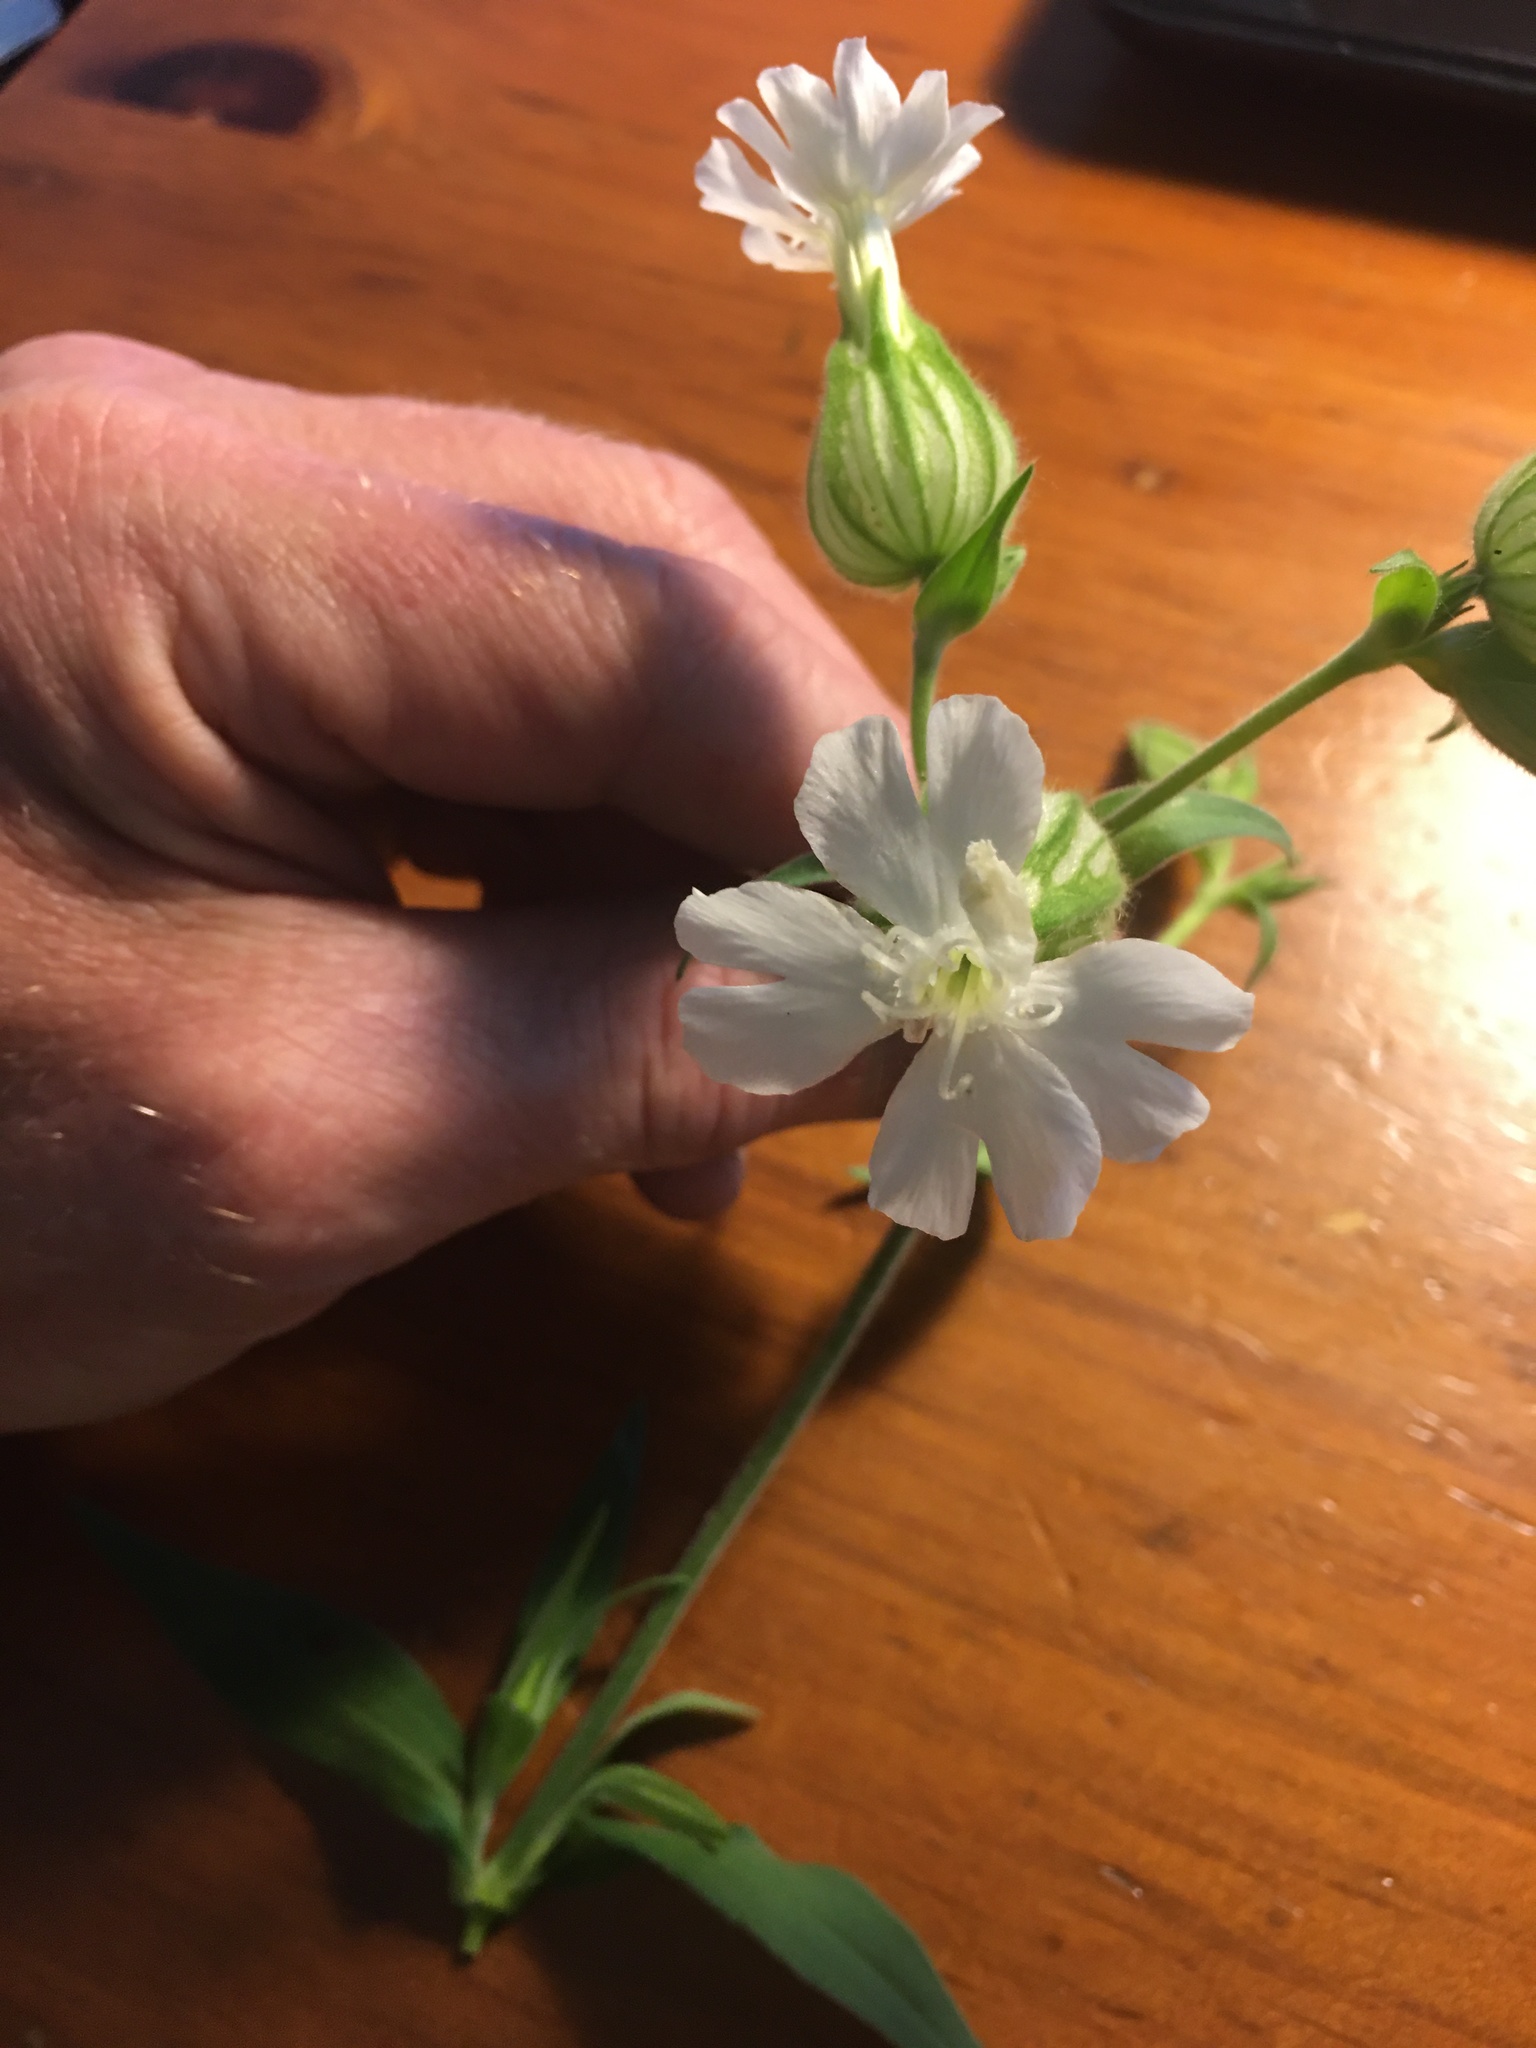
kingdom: Plantae
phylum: Tracheophyta
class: Magnoliopsida
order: Caryophyllales
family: Caryophyllaceae
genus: Silene
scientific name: Silene latifolia
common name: White campion
